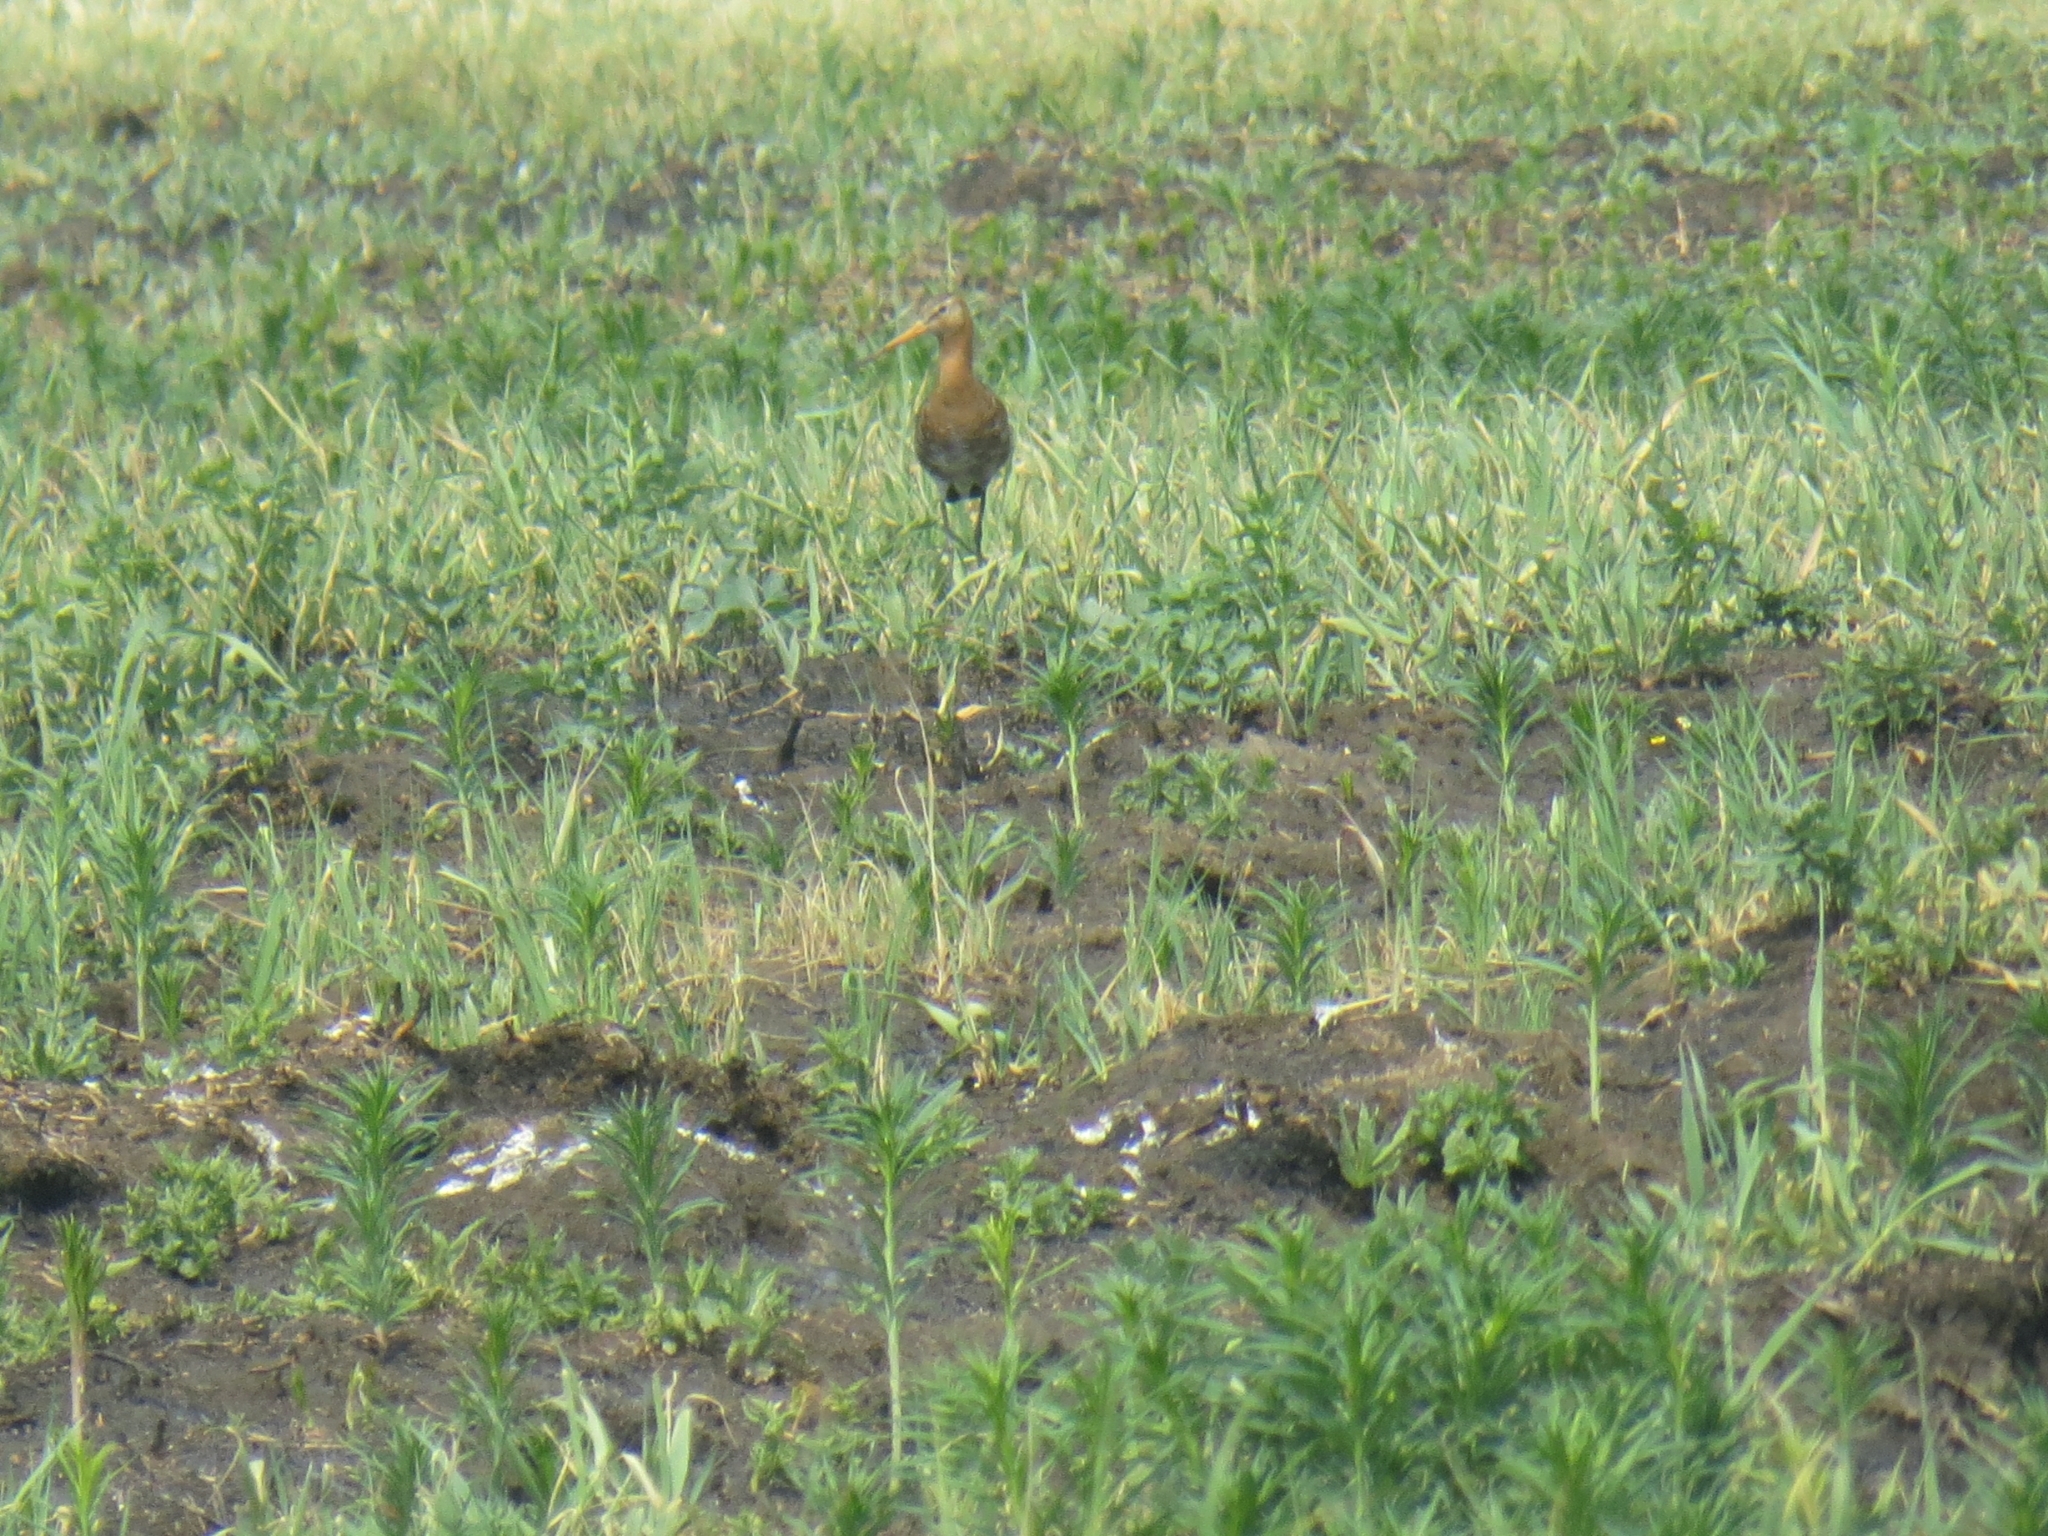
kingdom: Animalia
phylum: Chordata
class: Aves
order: Charadriiformes
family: Scolopacidae
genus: Limosa
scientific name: Limosa limosa
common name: Black-tailed godwit
